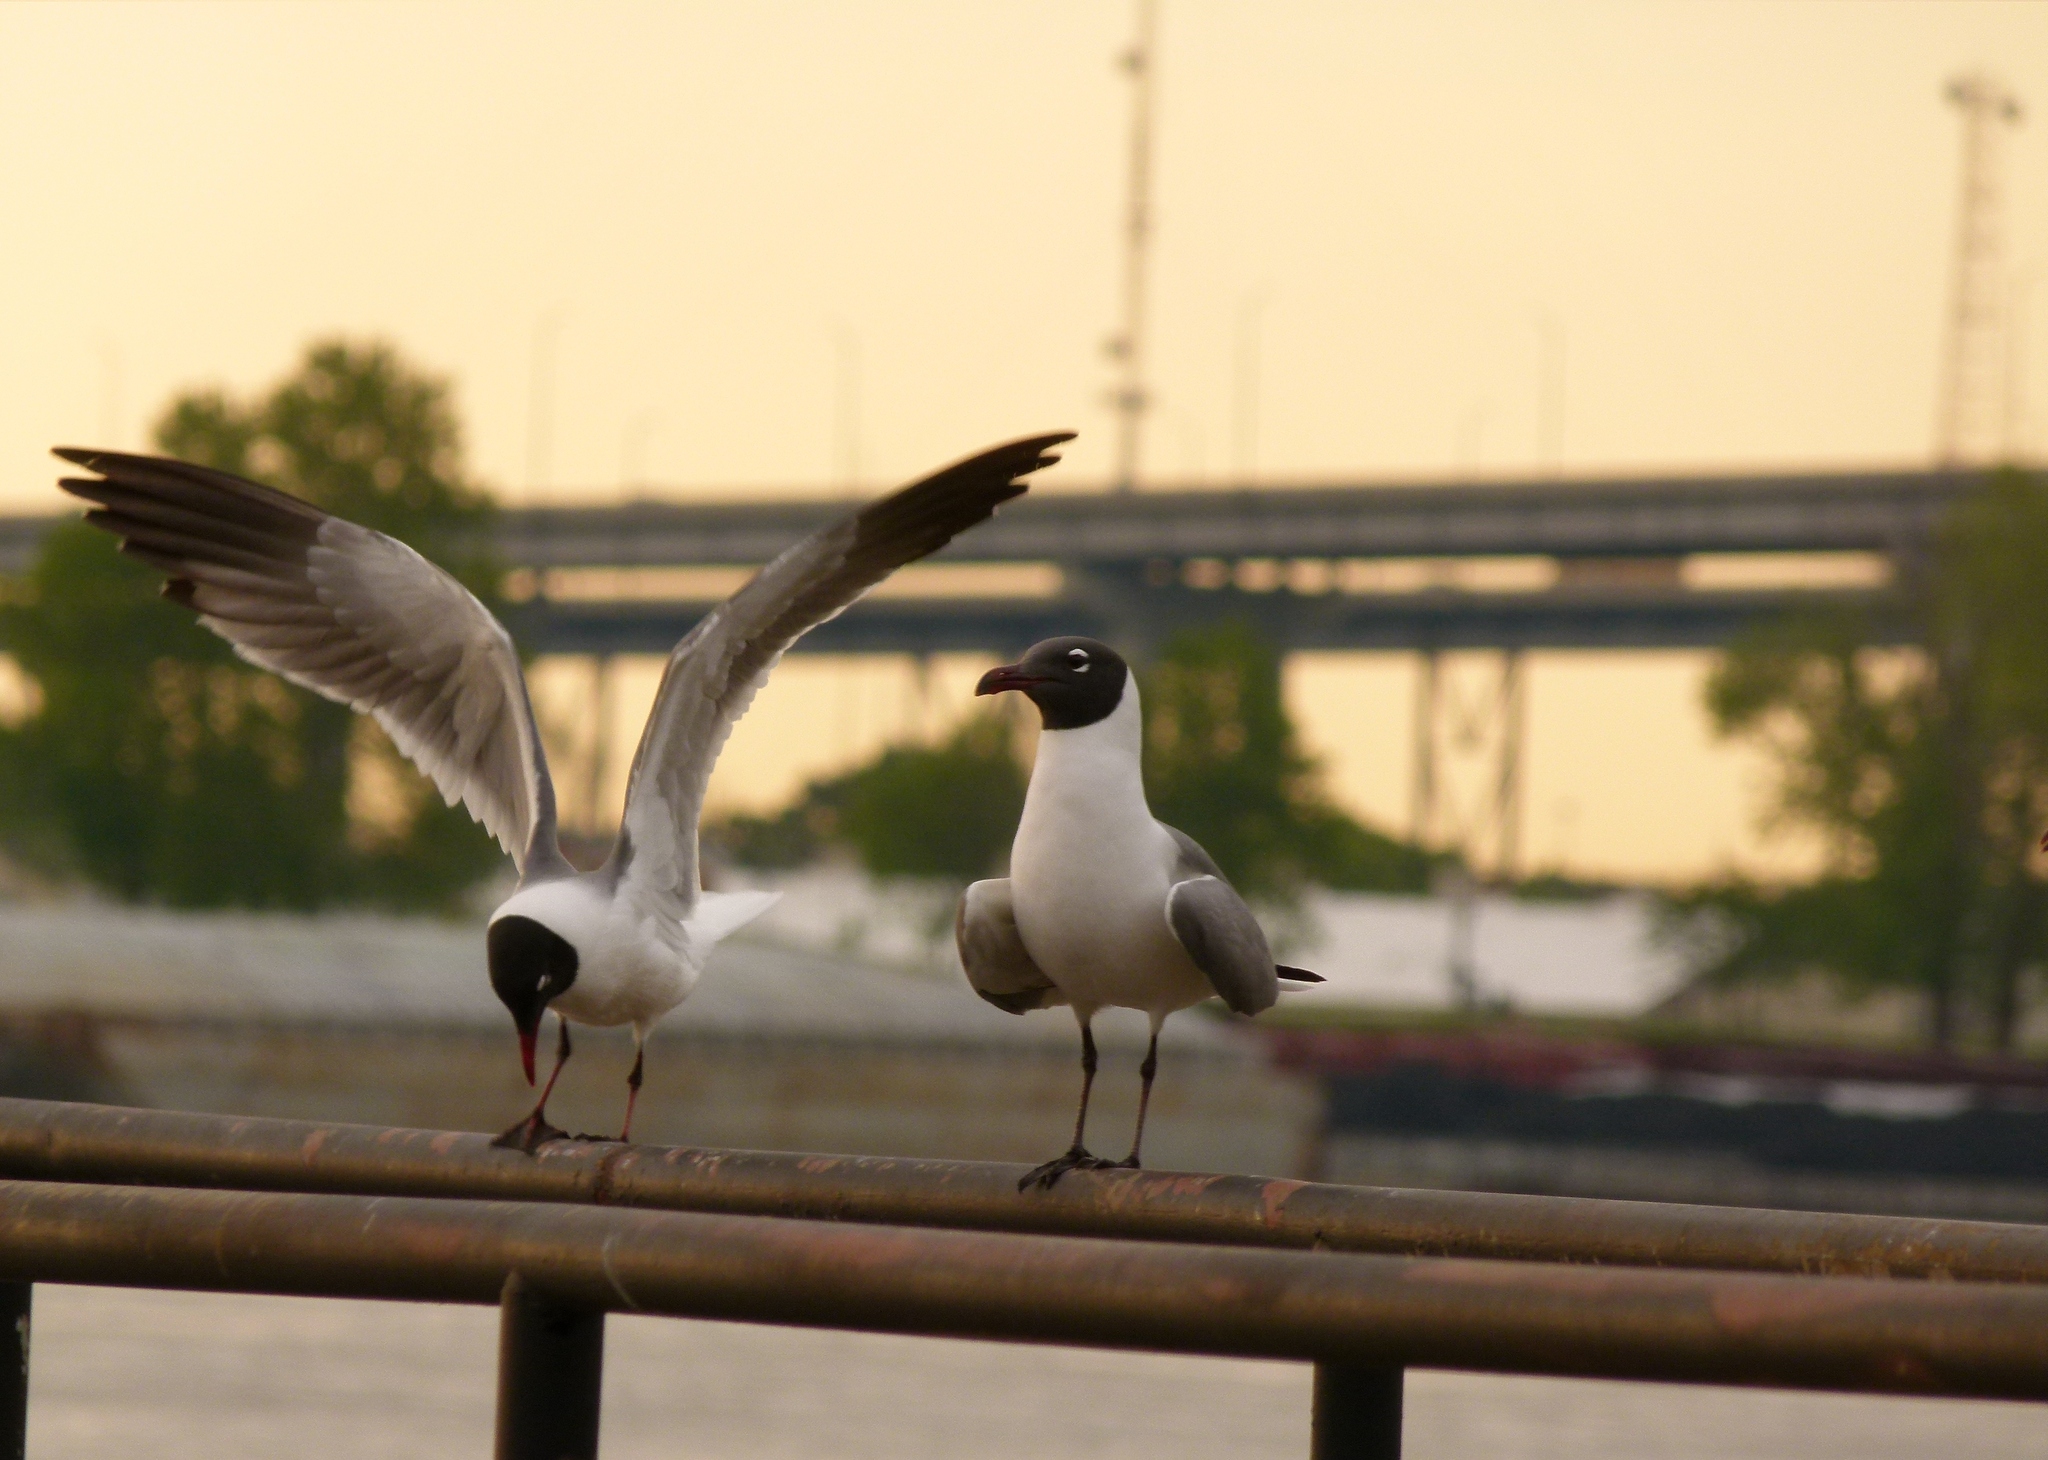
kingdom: Animalia
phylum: Chordata
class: Aves
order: Charadriiformes
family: Laridae
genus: Leucophaeus
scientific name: Leucophaeus atricilla
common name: Laughing gull
